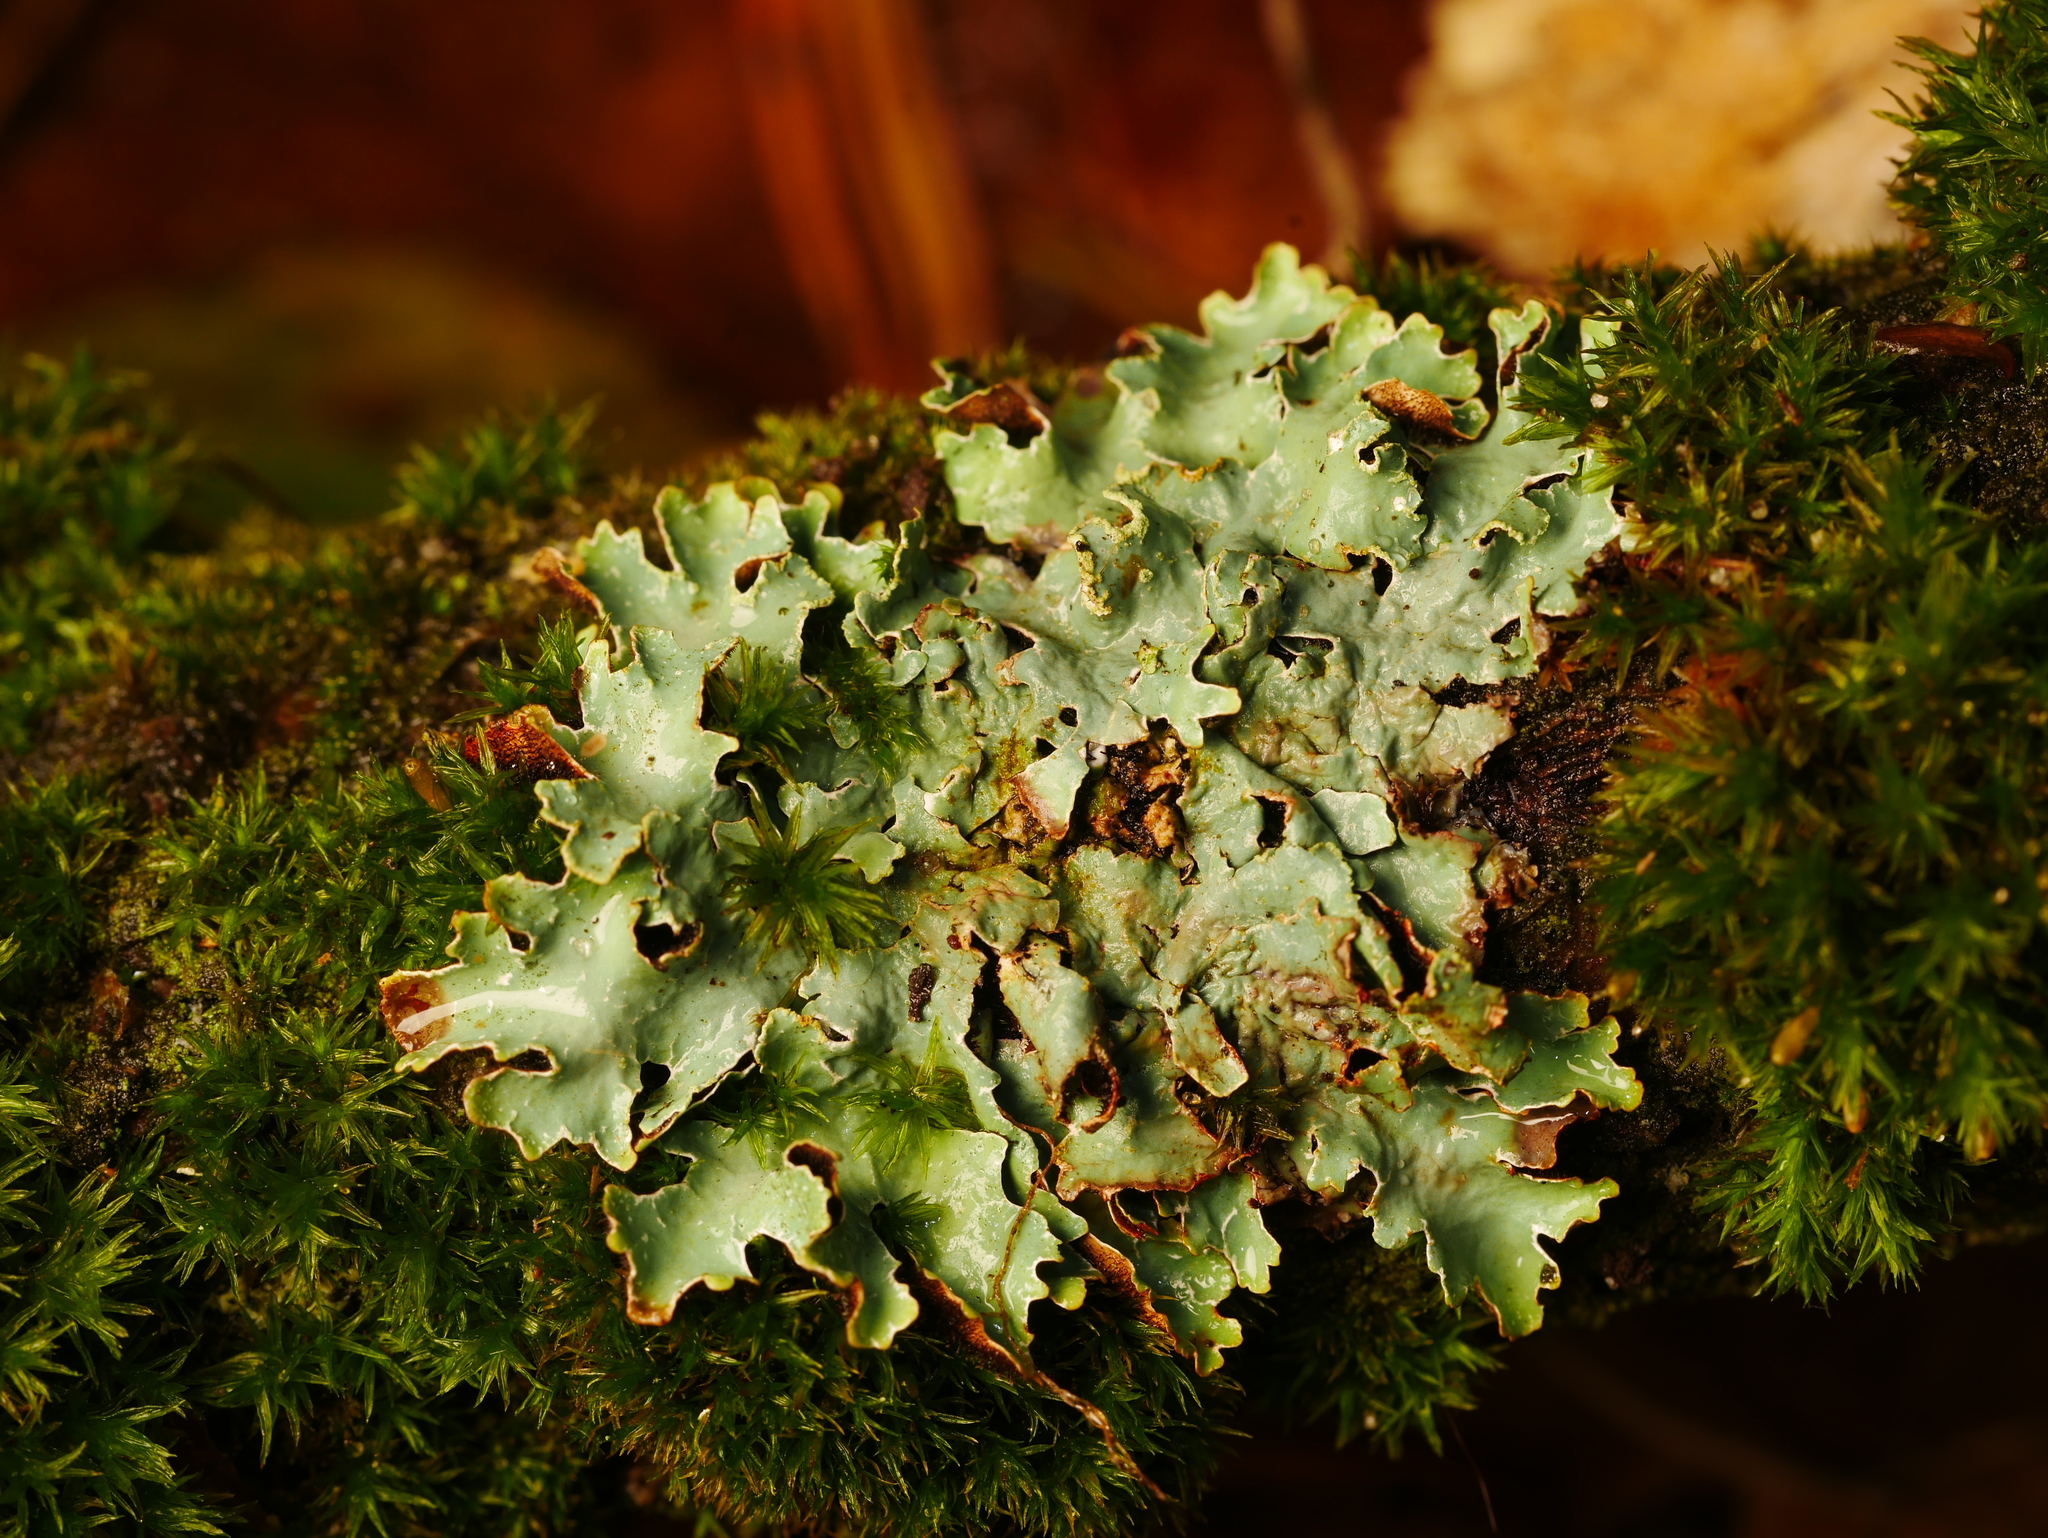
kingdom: Fungi
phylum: Ascomycota
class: Lecanoromycetes
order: Lecanorales
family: Parmeliaceae
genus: Parmelia
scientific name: Parmelia sulcata
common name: Netted shield lichen
